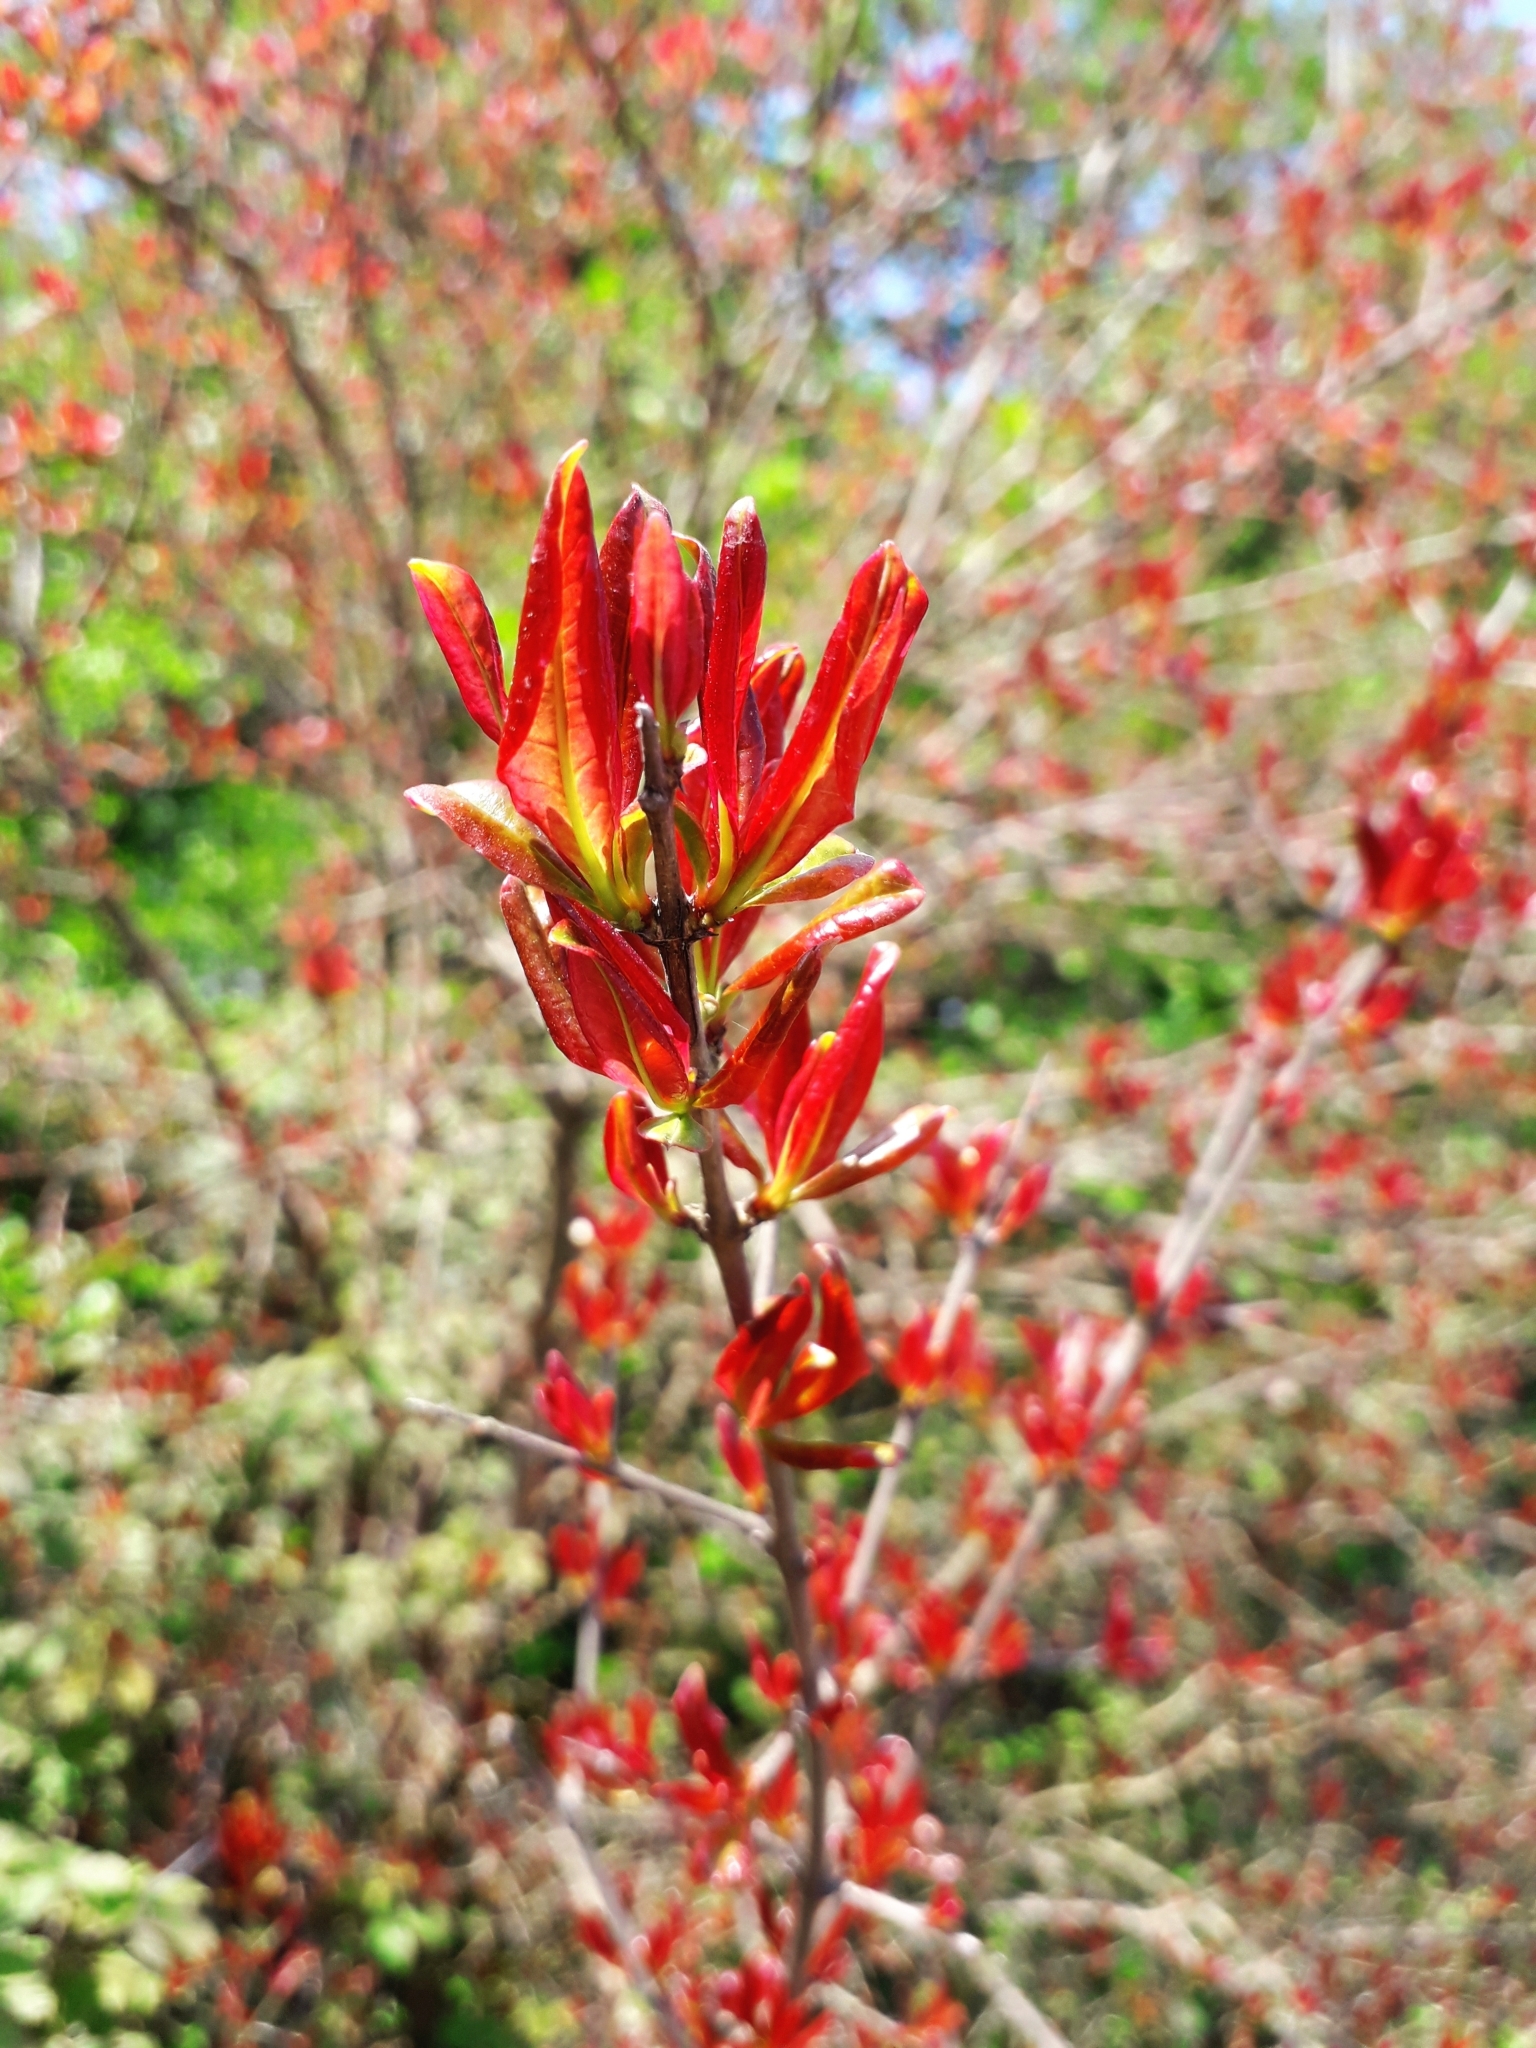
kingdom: Plantae
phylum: Tracheophyta
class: Magnoliopsida
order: Myrtales
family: Lythraceae
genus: Punica
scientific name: Punica granatum
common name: Pomegranate
